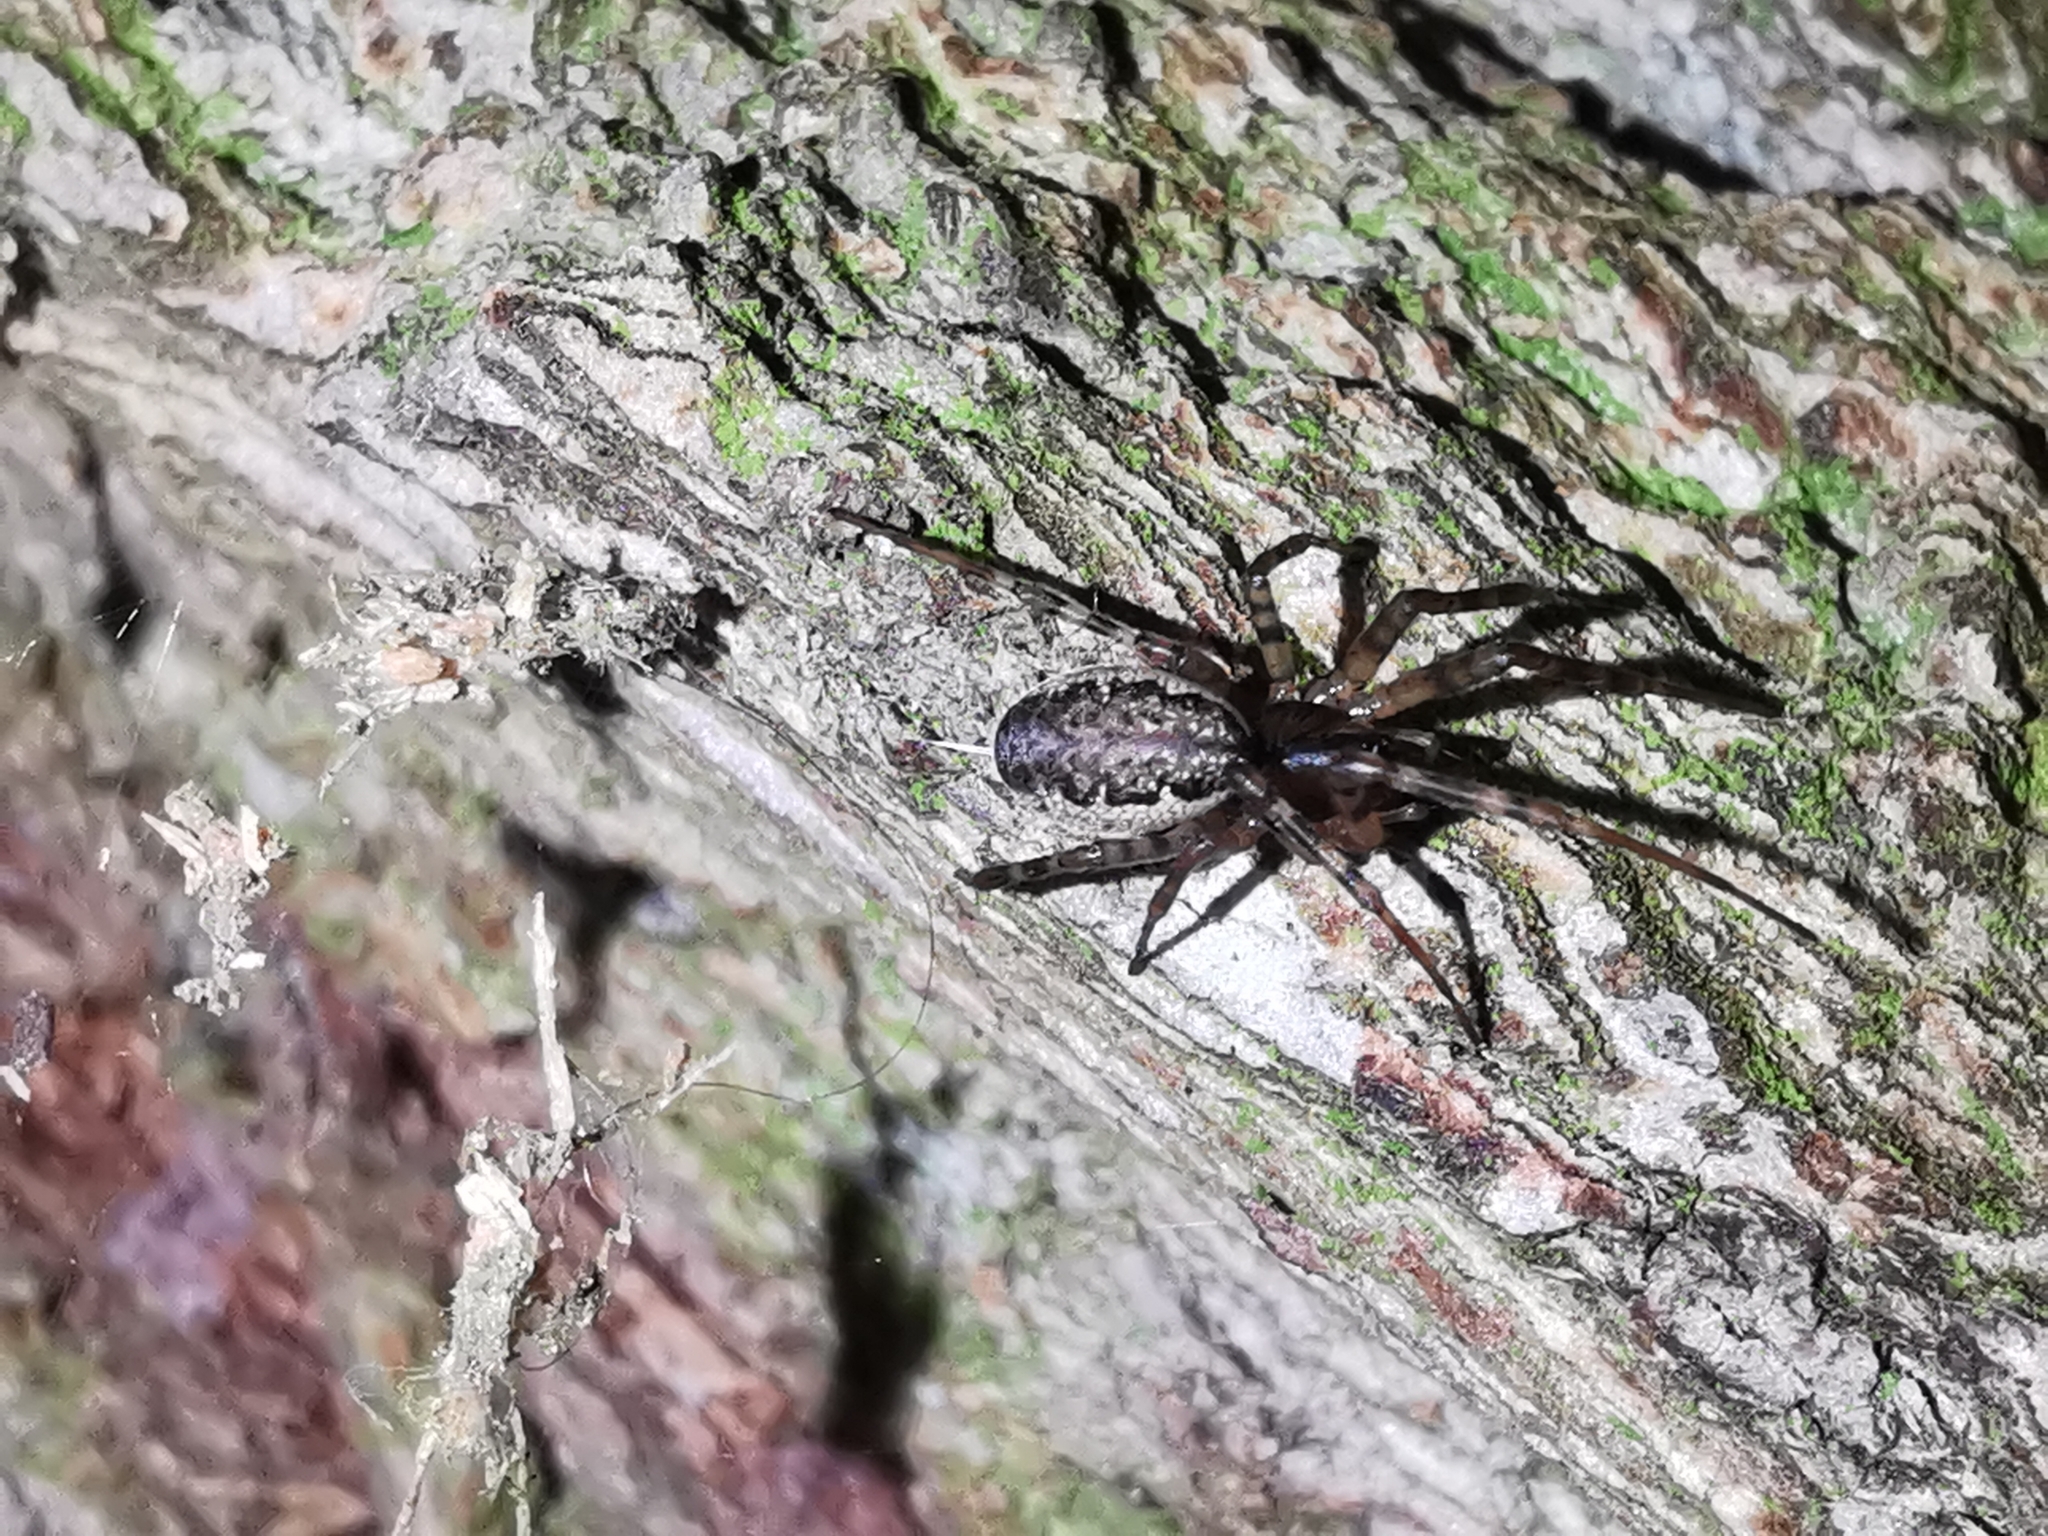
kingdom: Animalia
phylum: Arthropoda
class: Arachnida
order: Araneae
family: Linyphiidae
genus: Neriene
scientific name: Neriene montana
